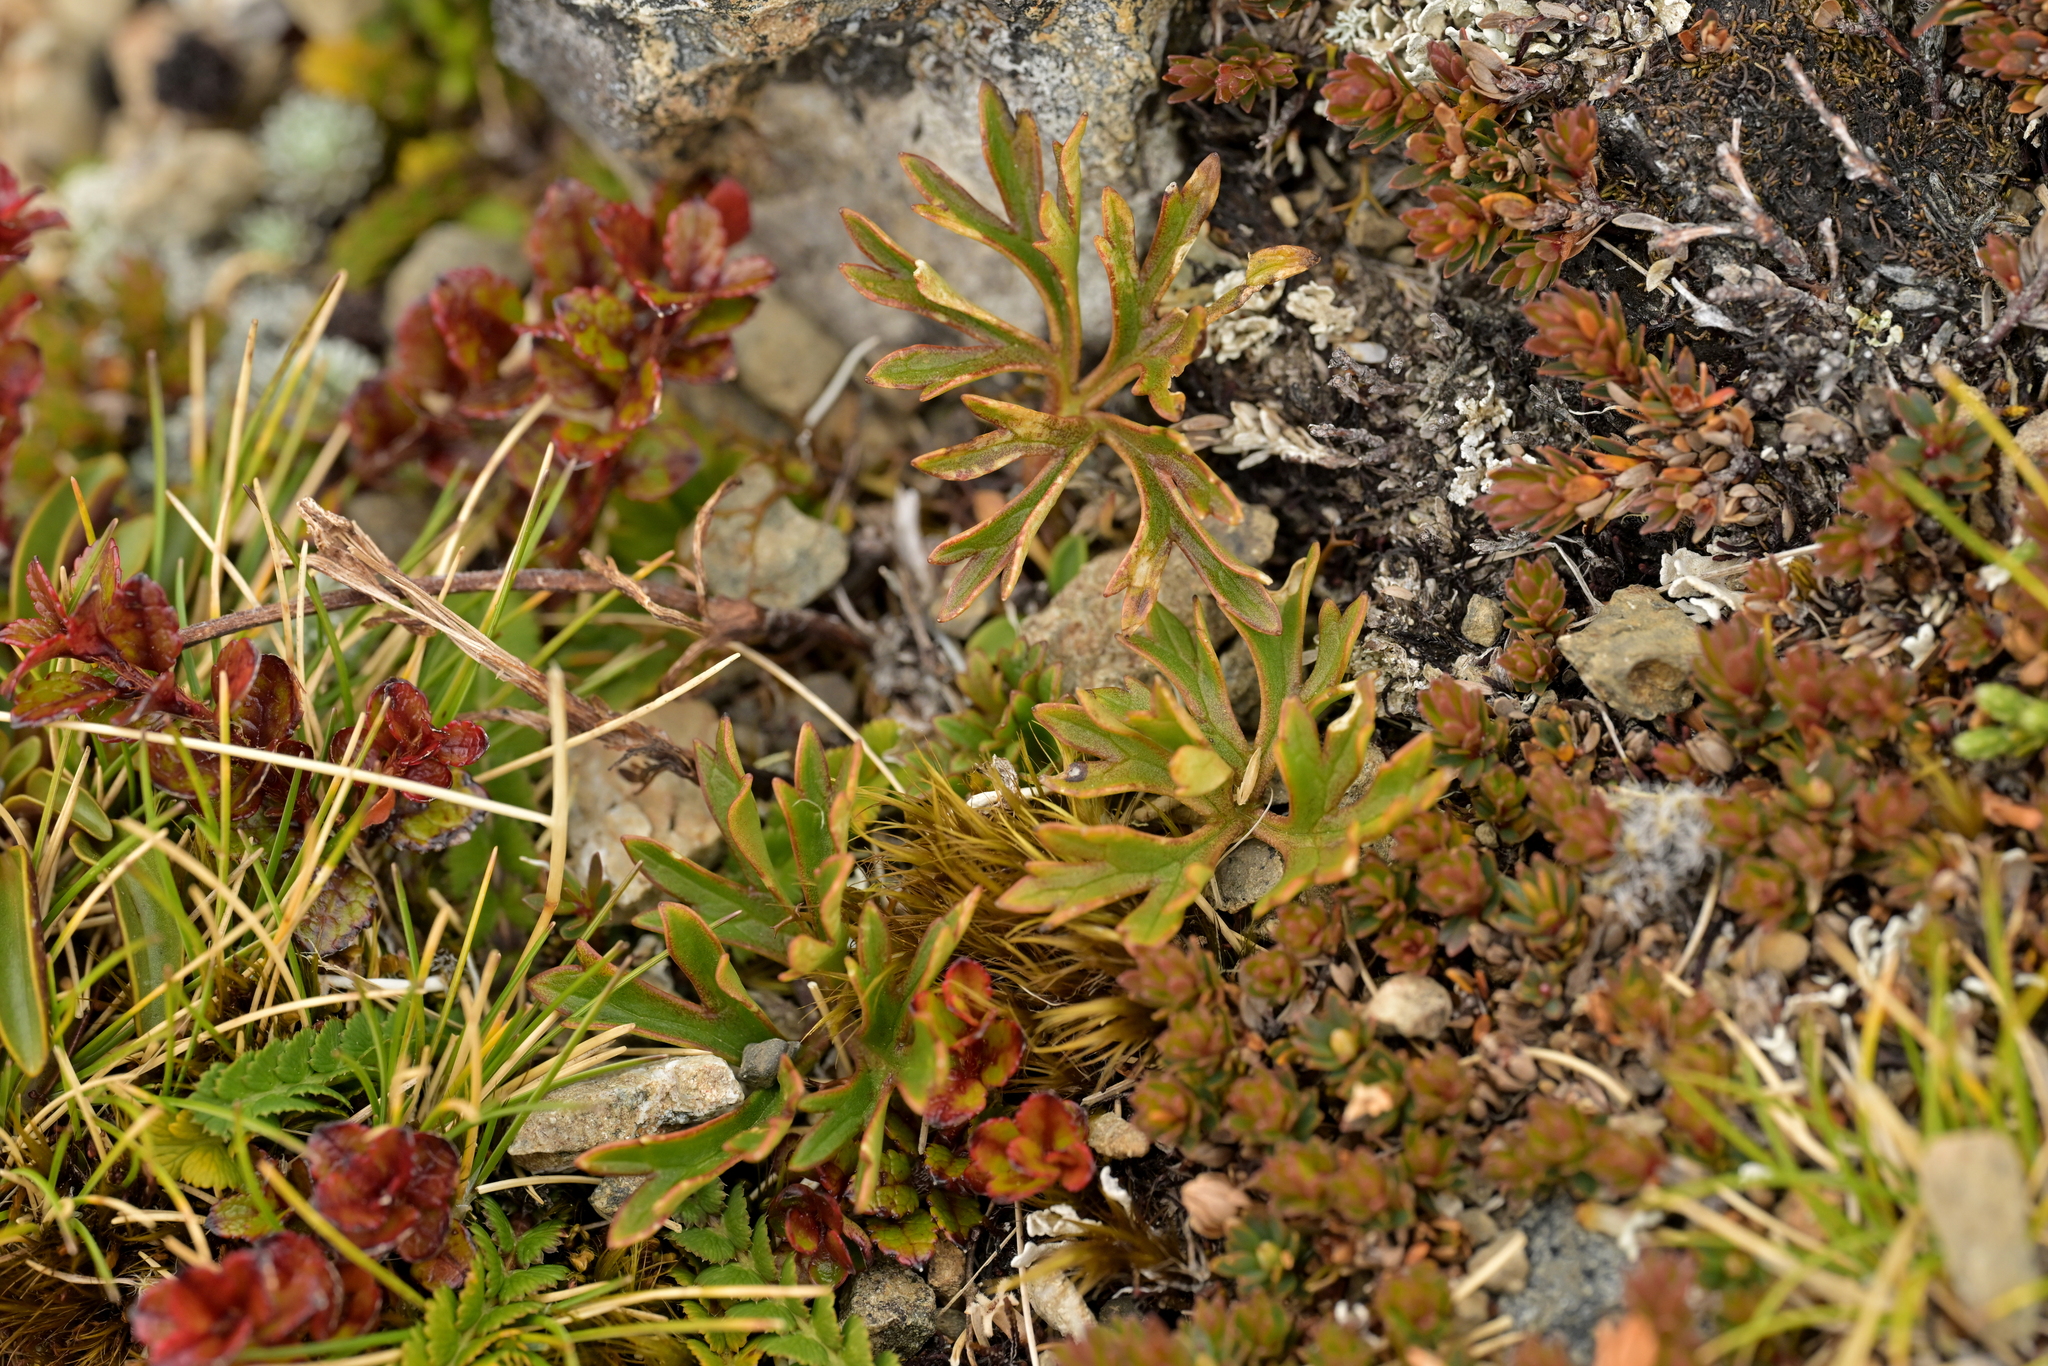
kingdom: Plantae
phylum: Tracheophyta
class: Magnoliopsida
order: Ranunculales
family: Ranunculaceae
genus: Ranunculus
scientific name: Ranunculus verticillatus
